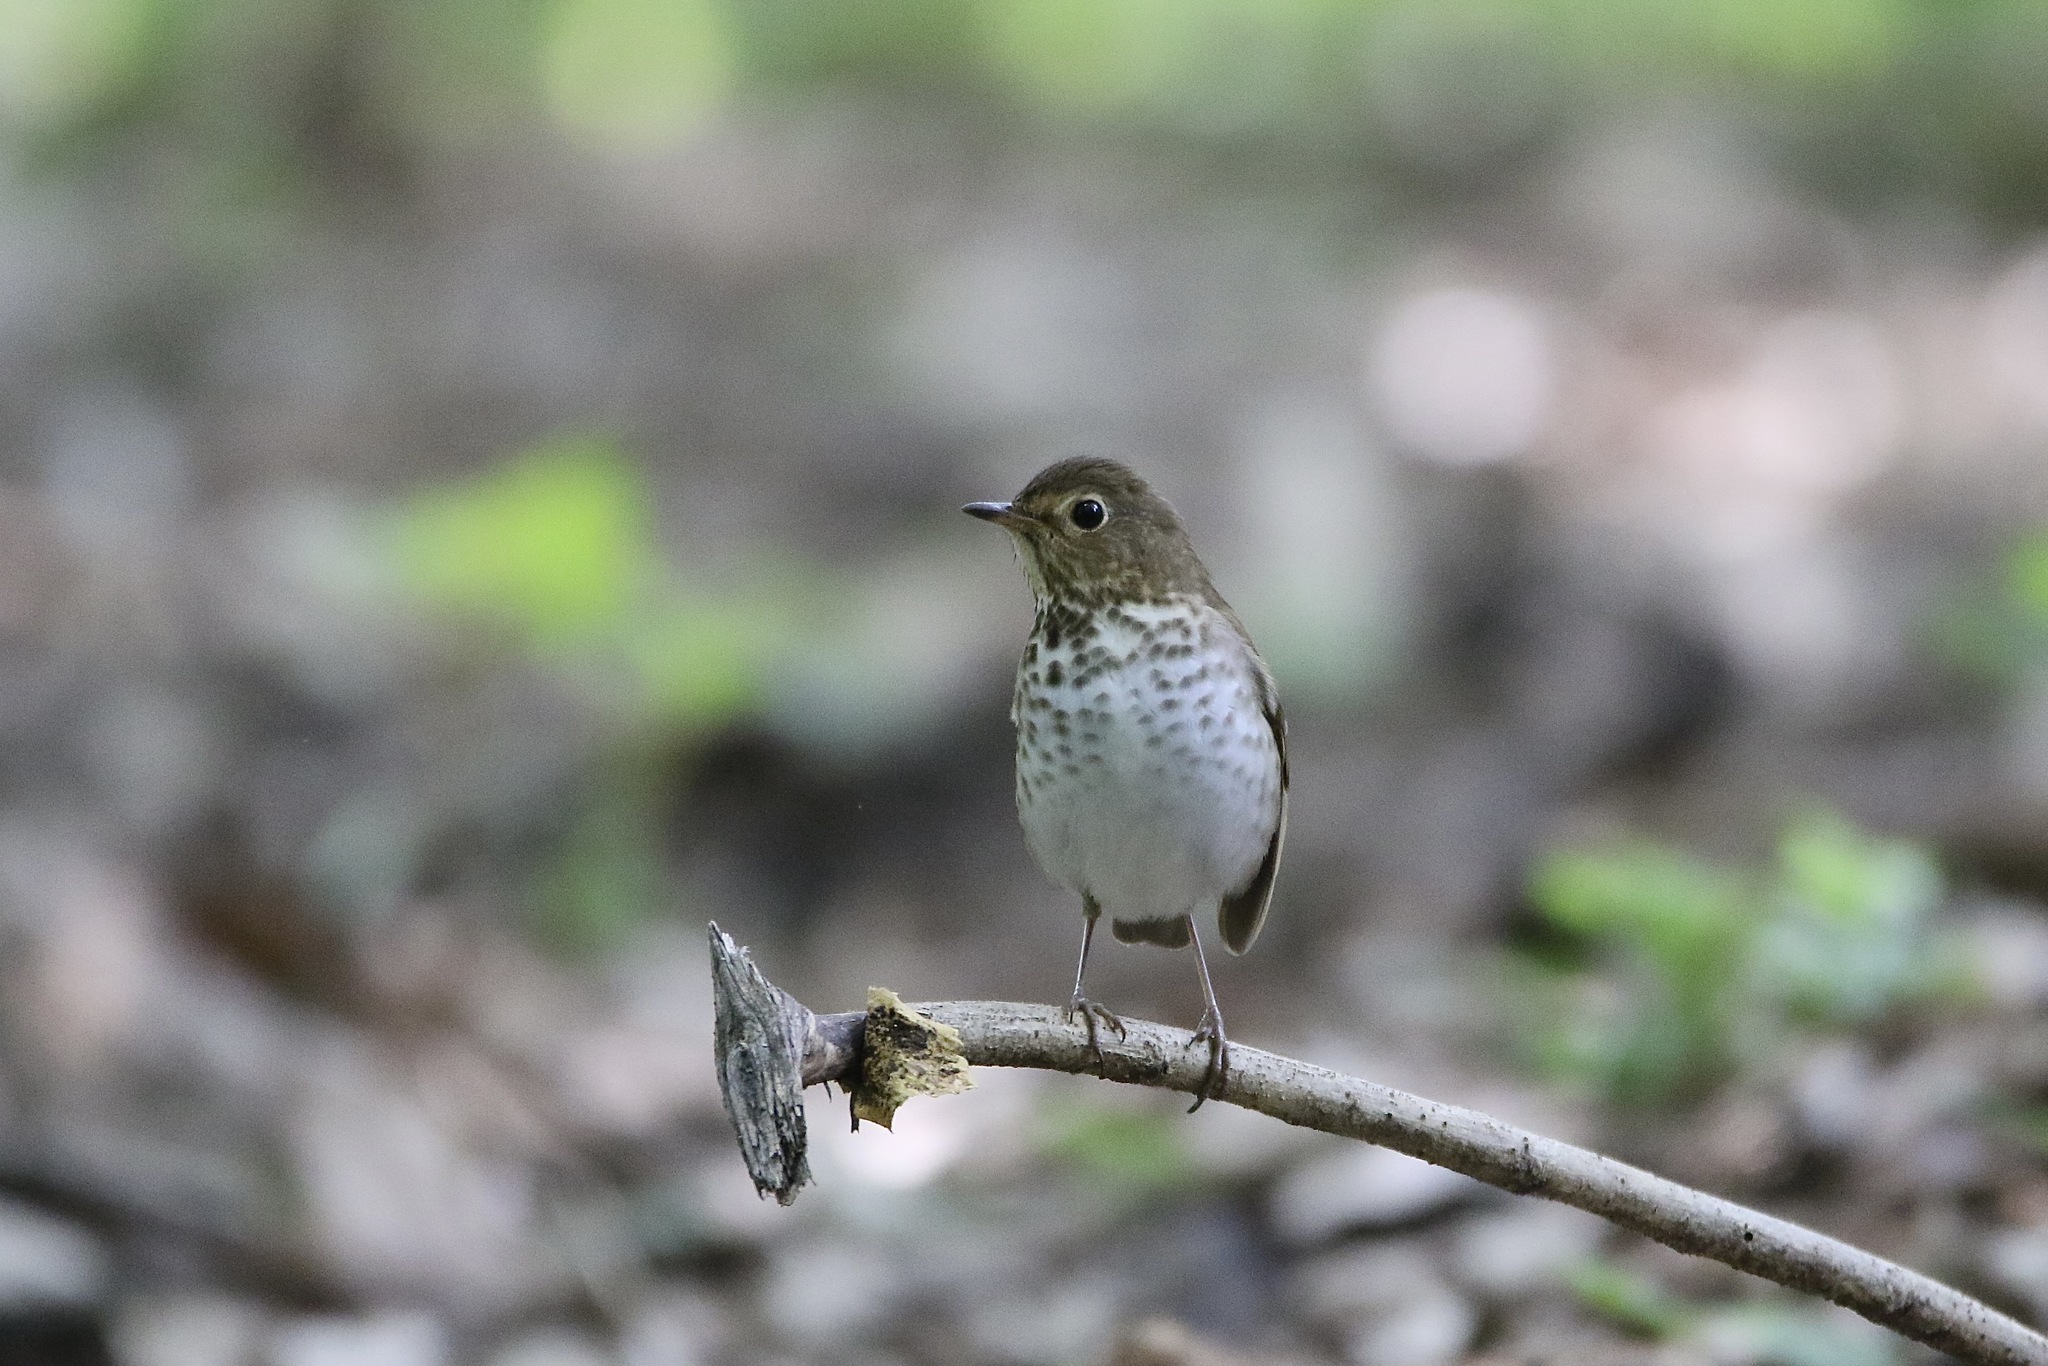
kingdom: Animalia
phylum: Chordata
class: Aves
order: Passeriformes
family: Turdidae
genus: Catharus
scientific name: Catharus ustulatus
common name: Swainson's thrush
